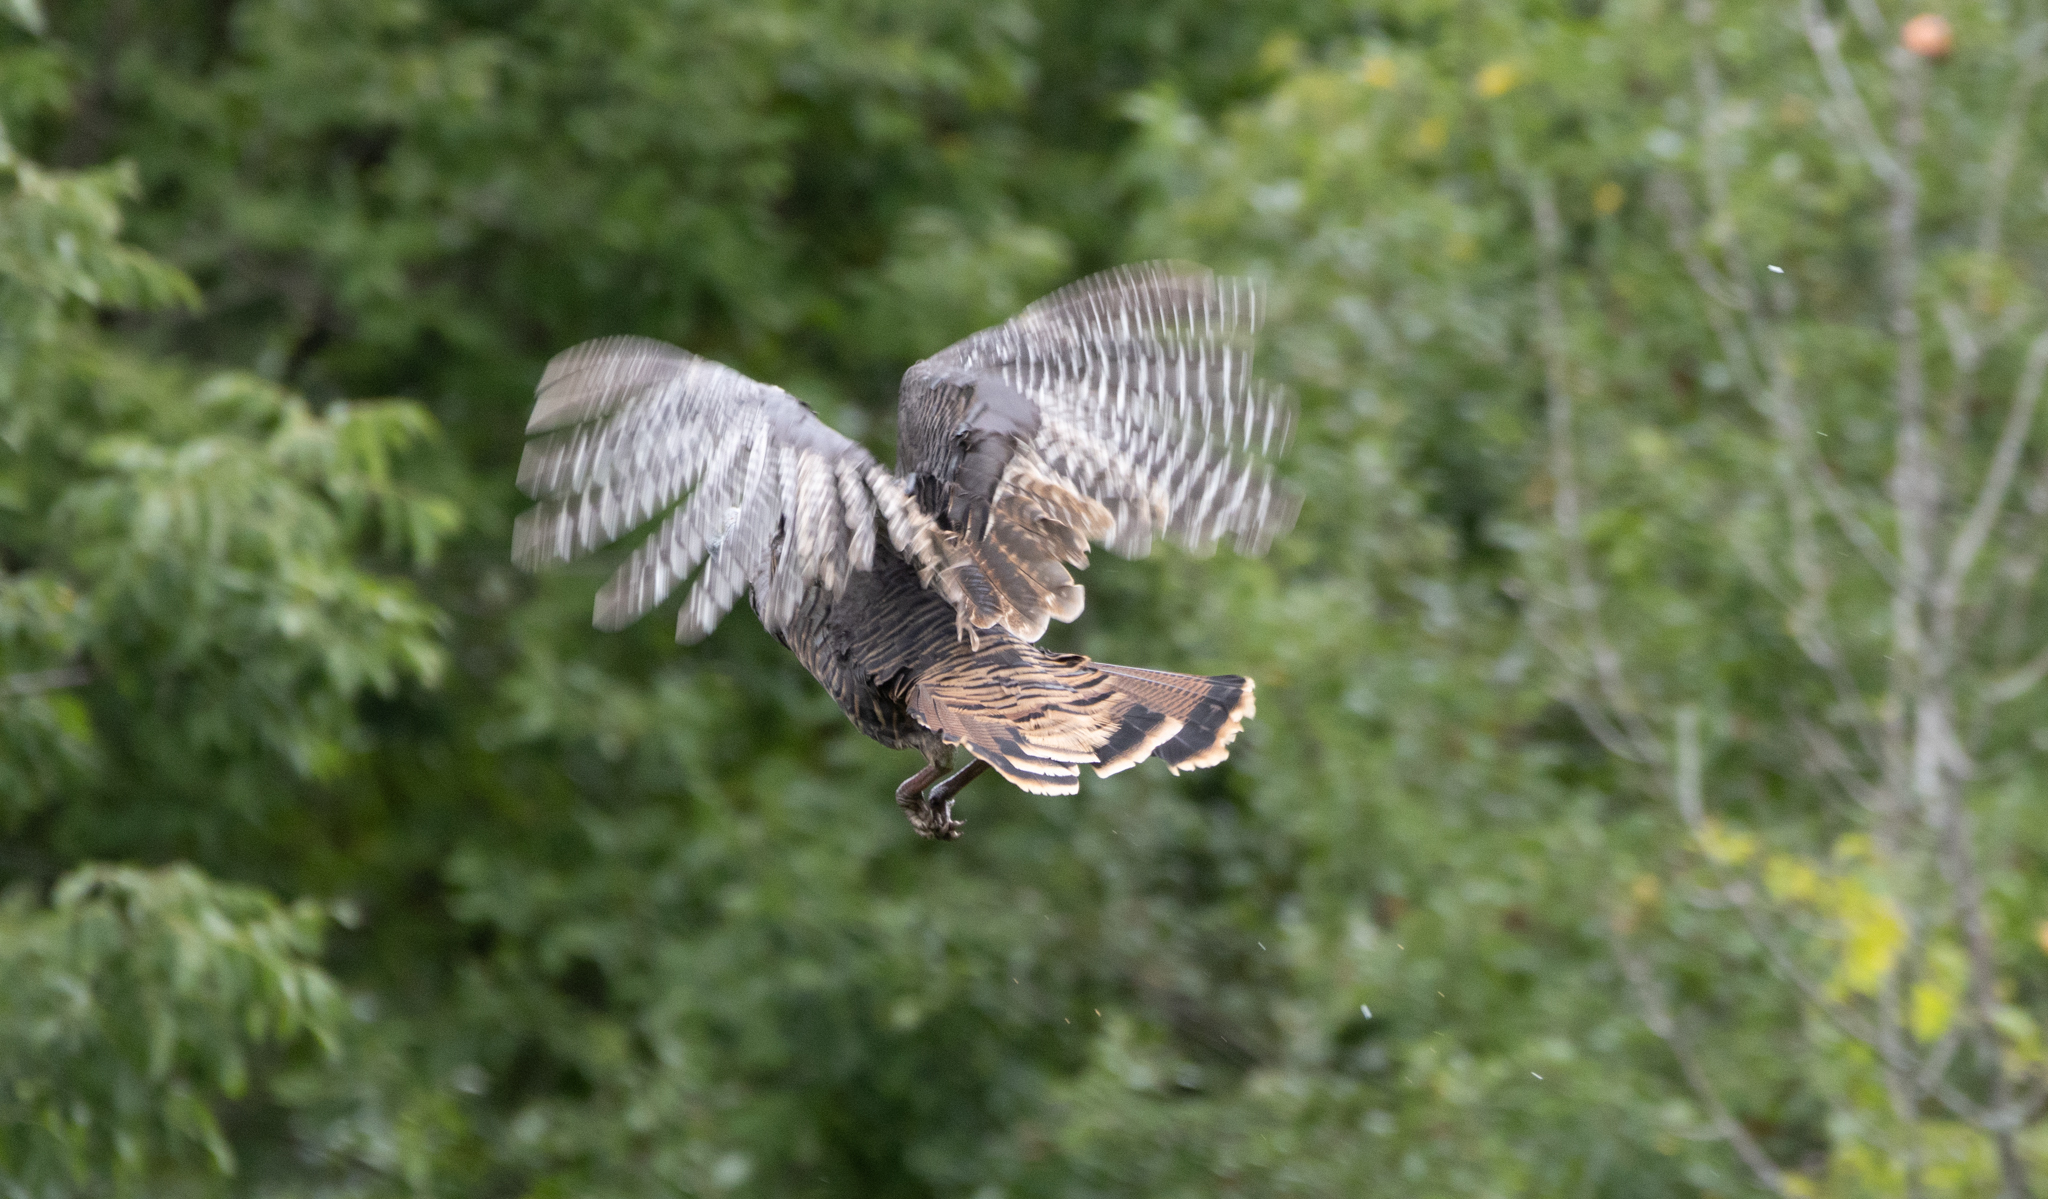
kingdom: Animalia
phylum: Chordata
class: Aves
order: Galliformes
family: Phasianidae
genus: Meleagris
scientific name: Meleagris gallopavo
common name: Wild turkey
